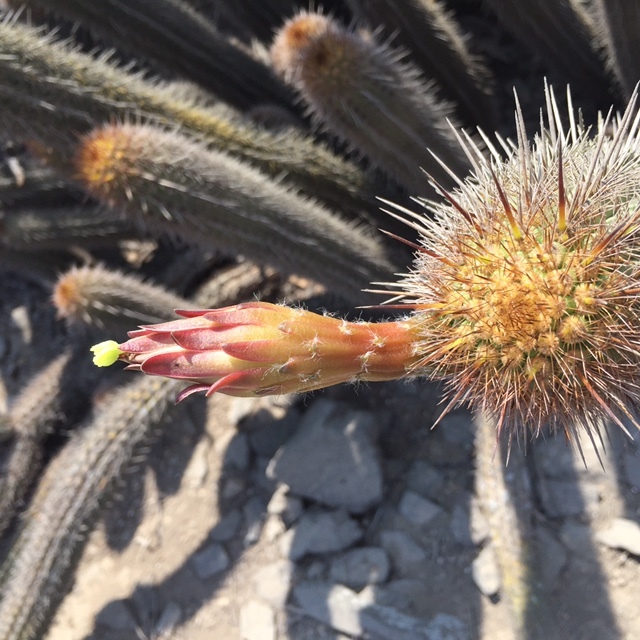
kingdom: Plantae
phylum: Tracheophyta
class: Magnoliopsida
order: Caryophyllales
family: Cactaceae
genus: Haageocereus
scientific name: Haageocereus acranthus
